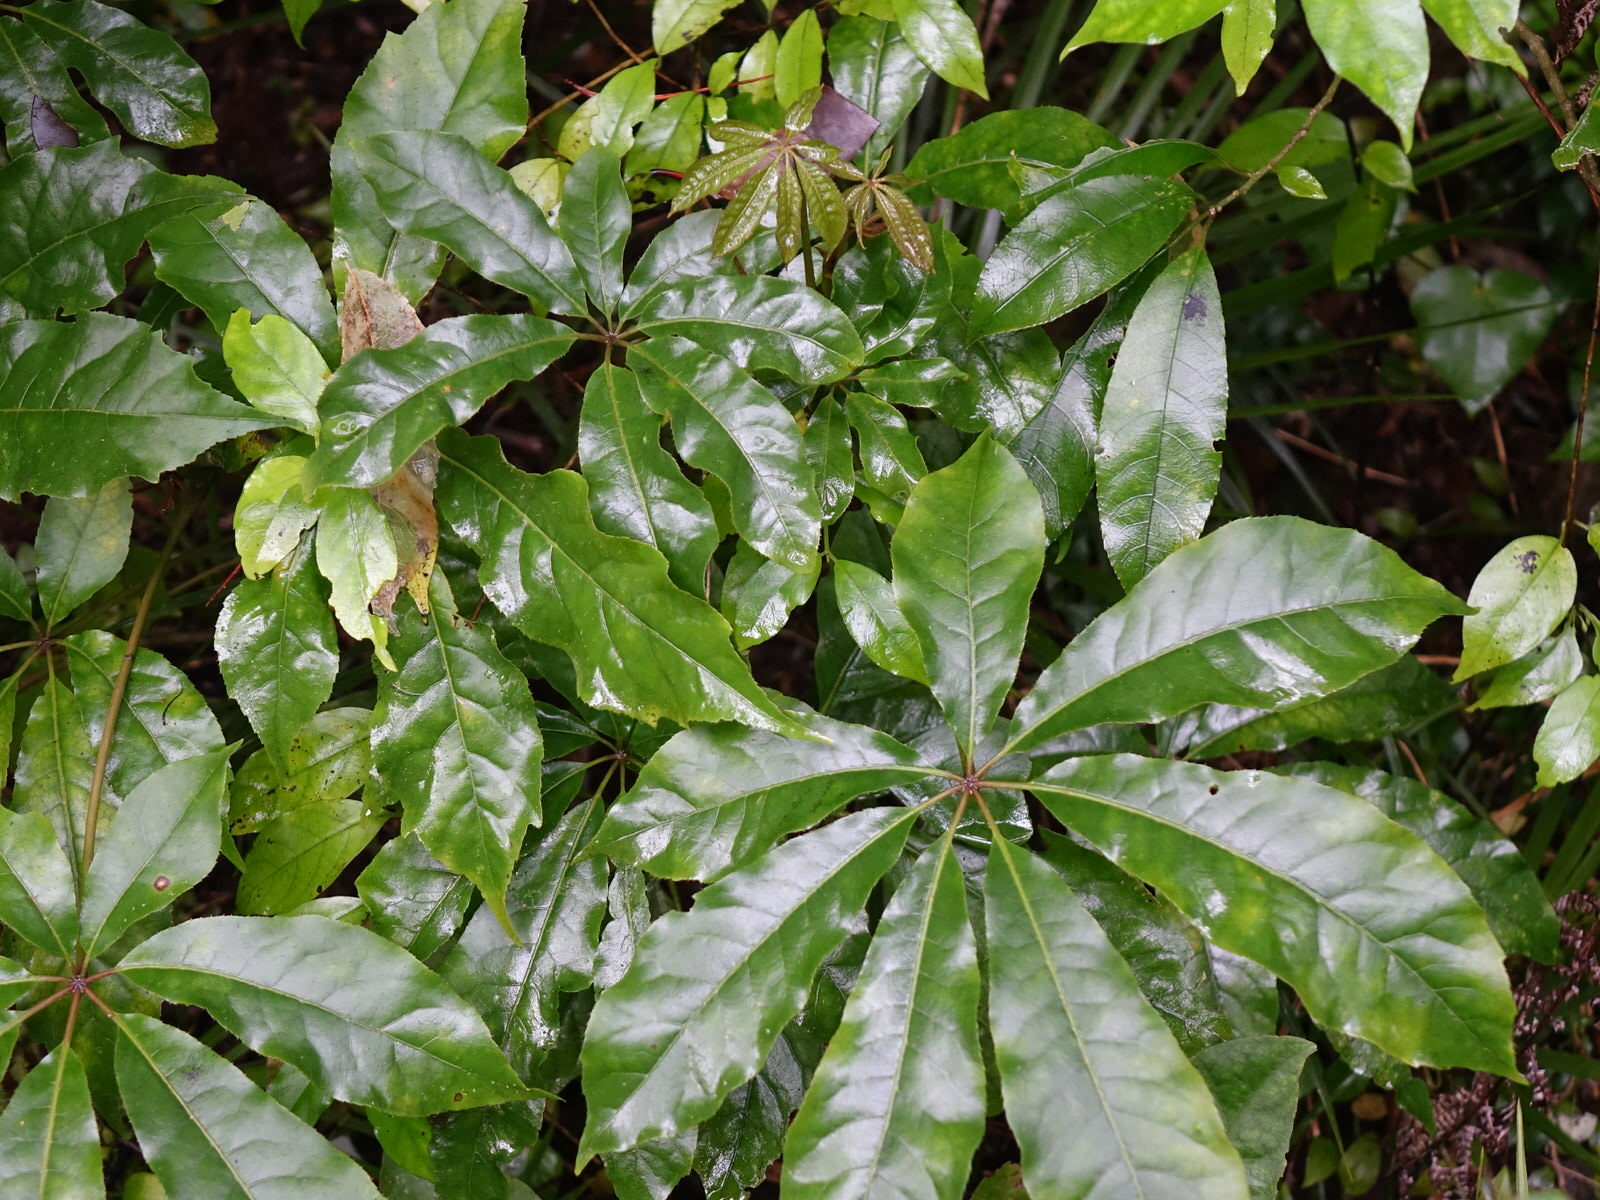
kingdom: Plantae
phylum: Tracheophyta
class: Magnoliopsida
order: Apiales
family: Araliaceae
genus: Schefflera
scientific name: Schefflera digitata
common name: Pate
